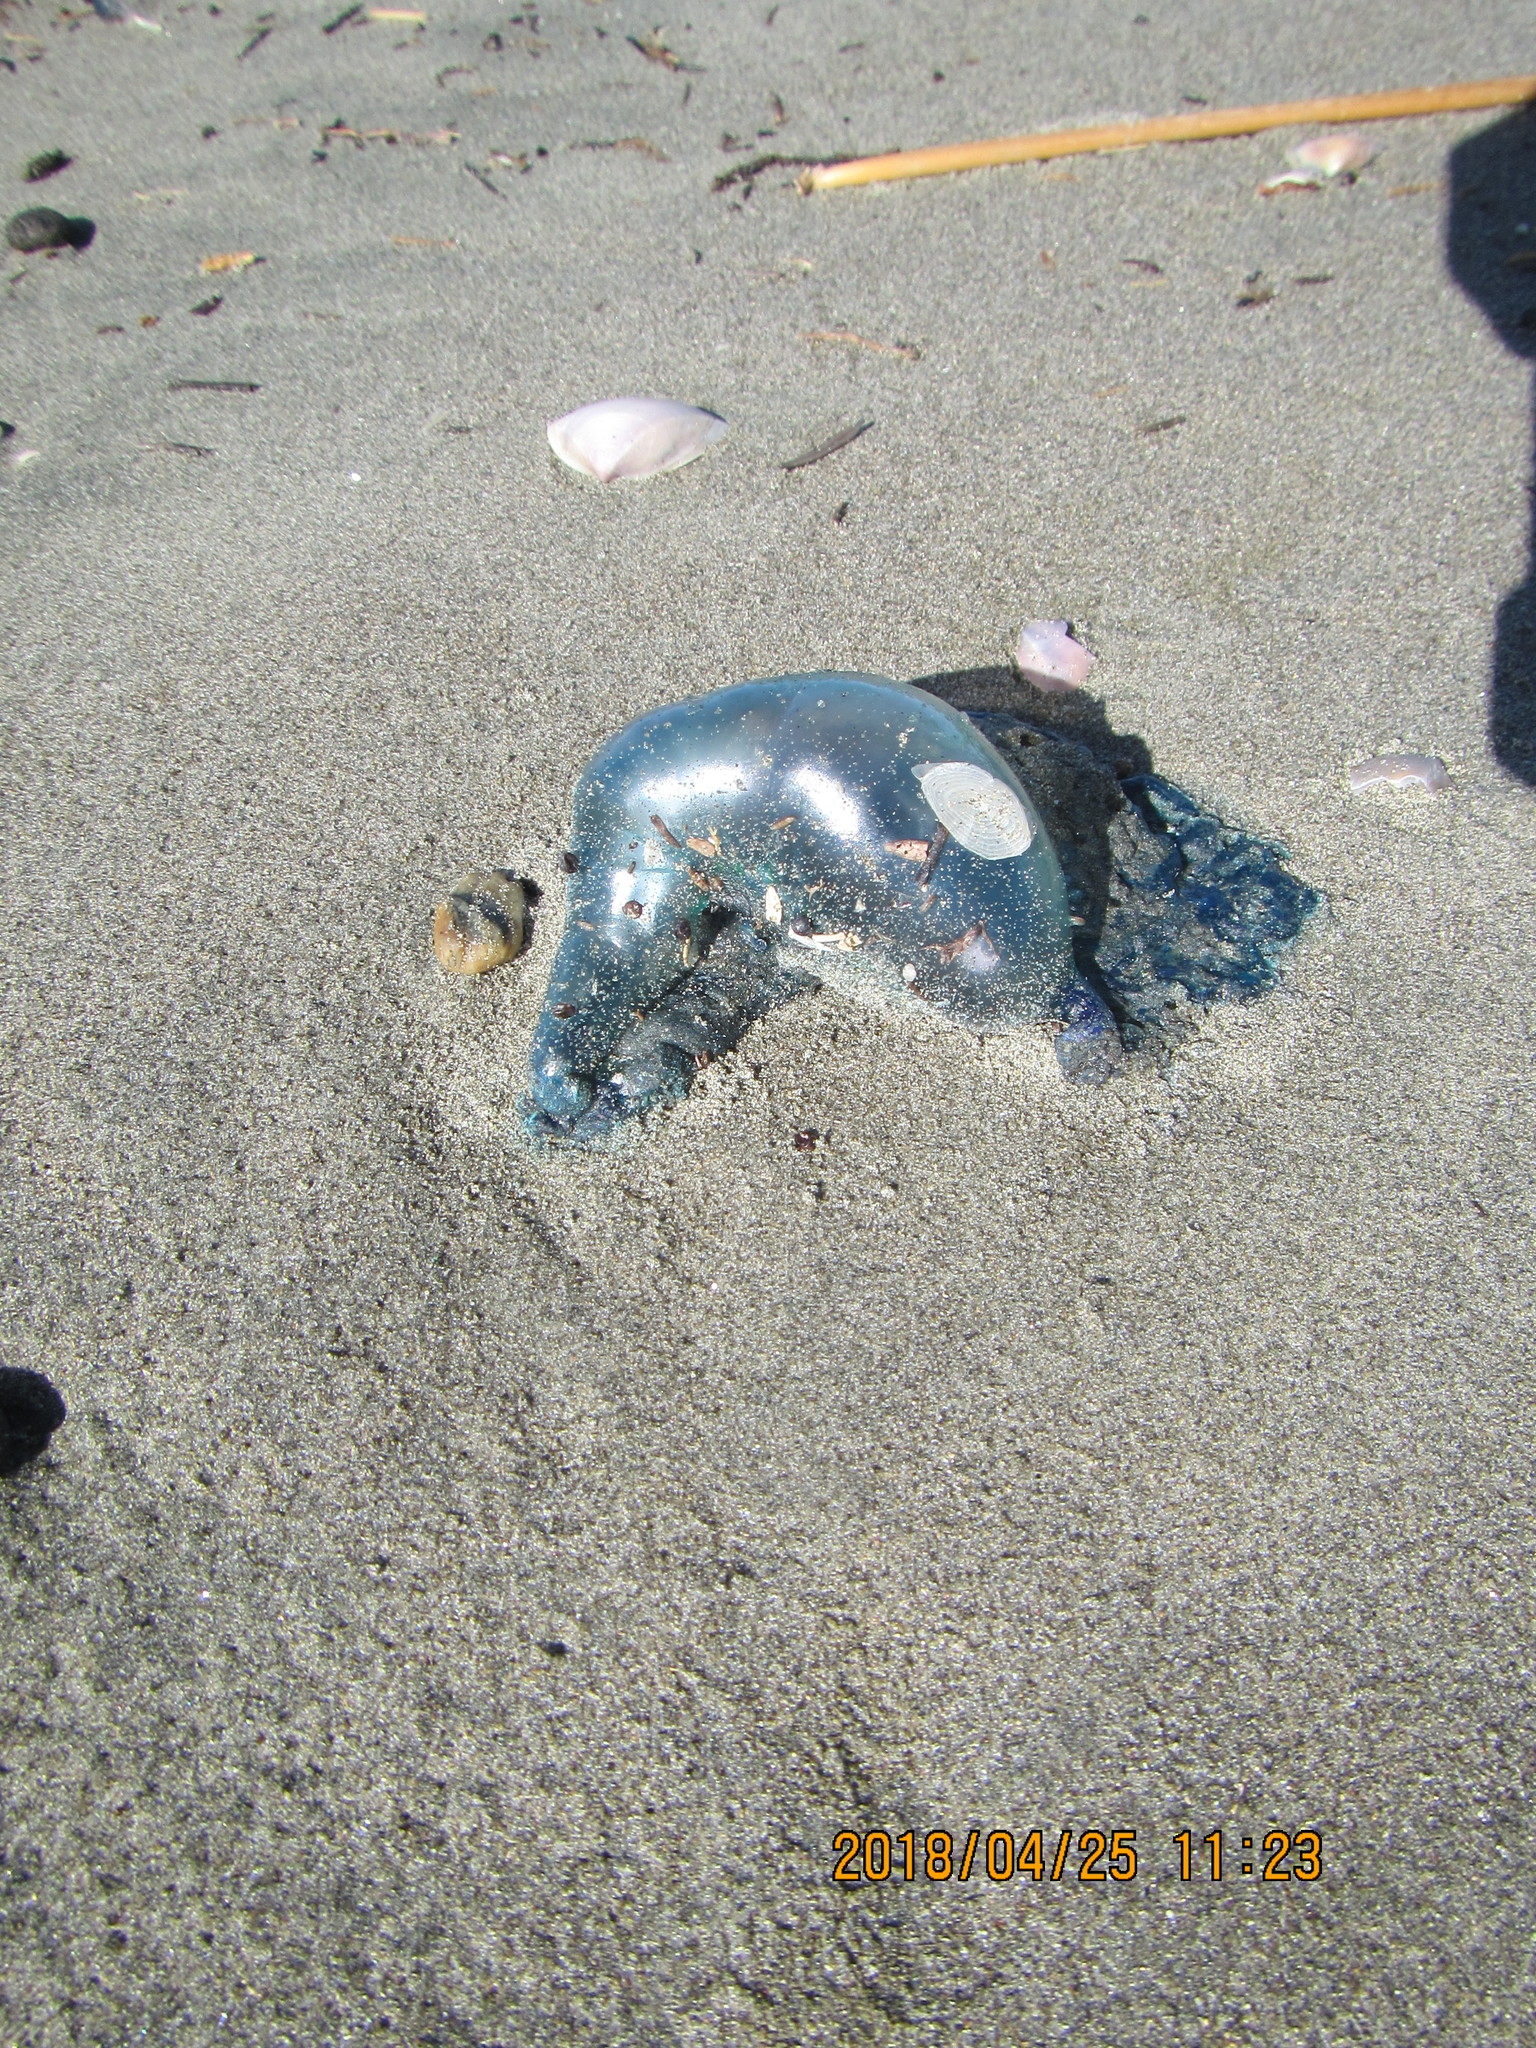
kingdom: Animalia
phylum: Cnidaria
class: Hydrozoa
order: Siphonophorae
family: Physaliidae
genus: Physalia
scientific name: Physalia physalis
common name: Portuguese man-of-war
